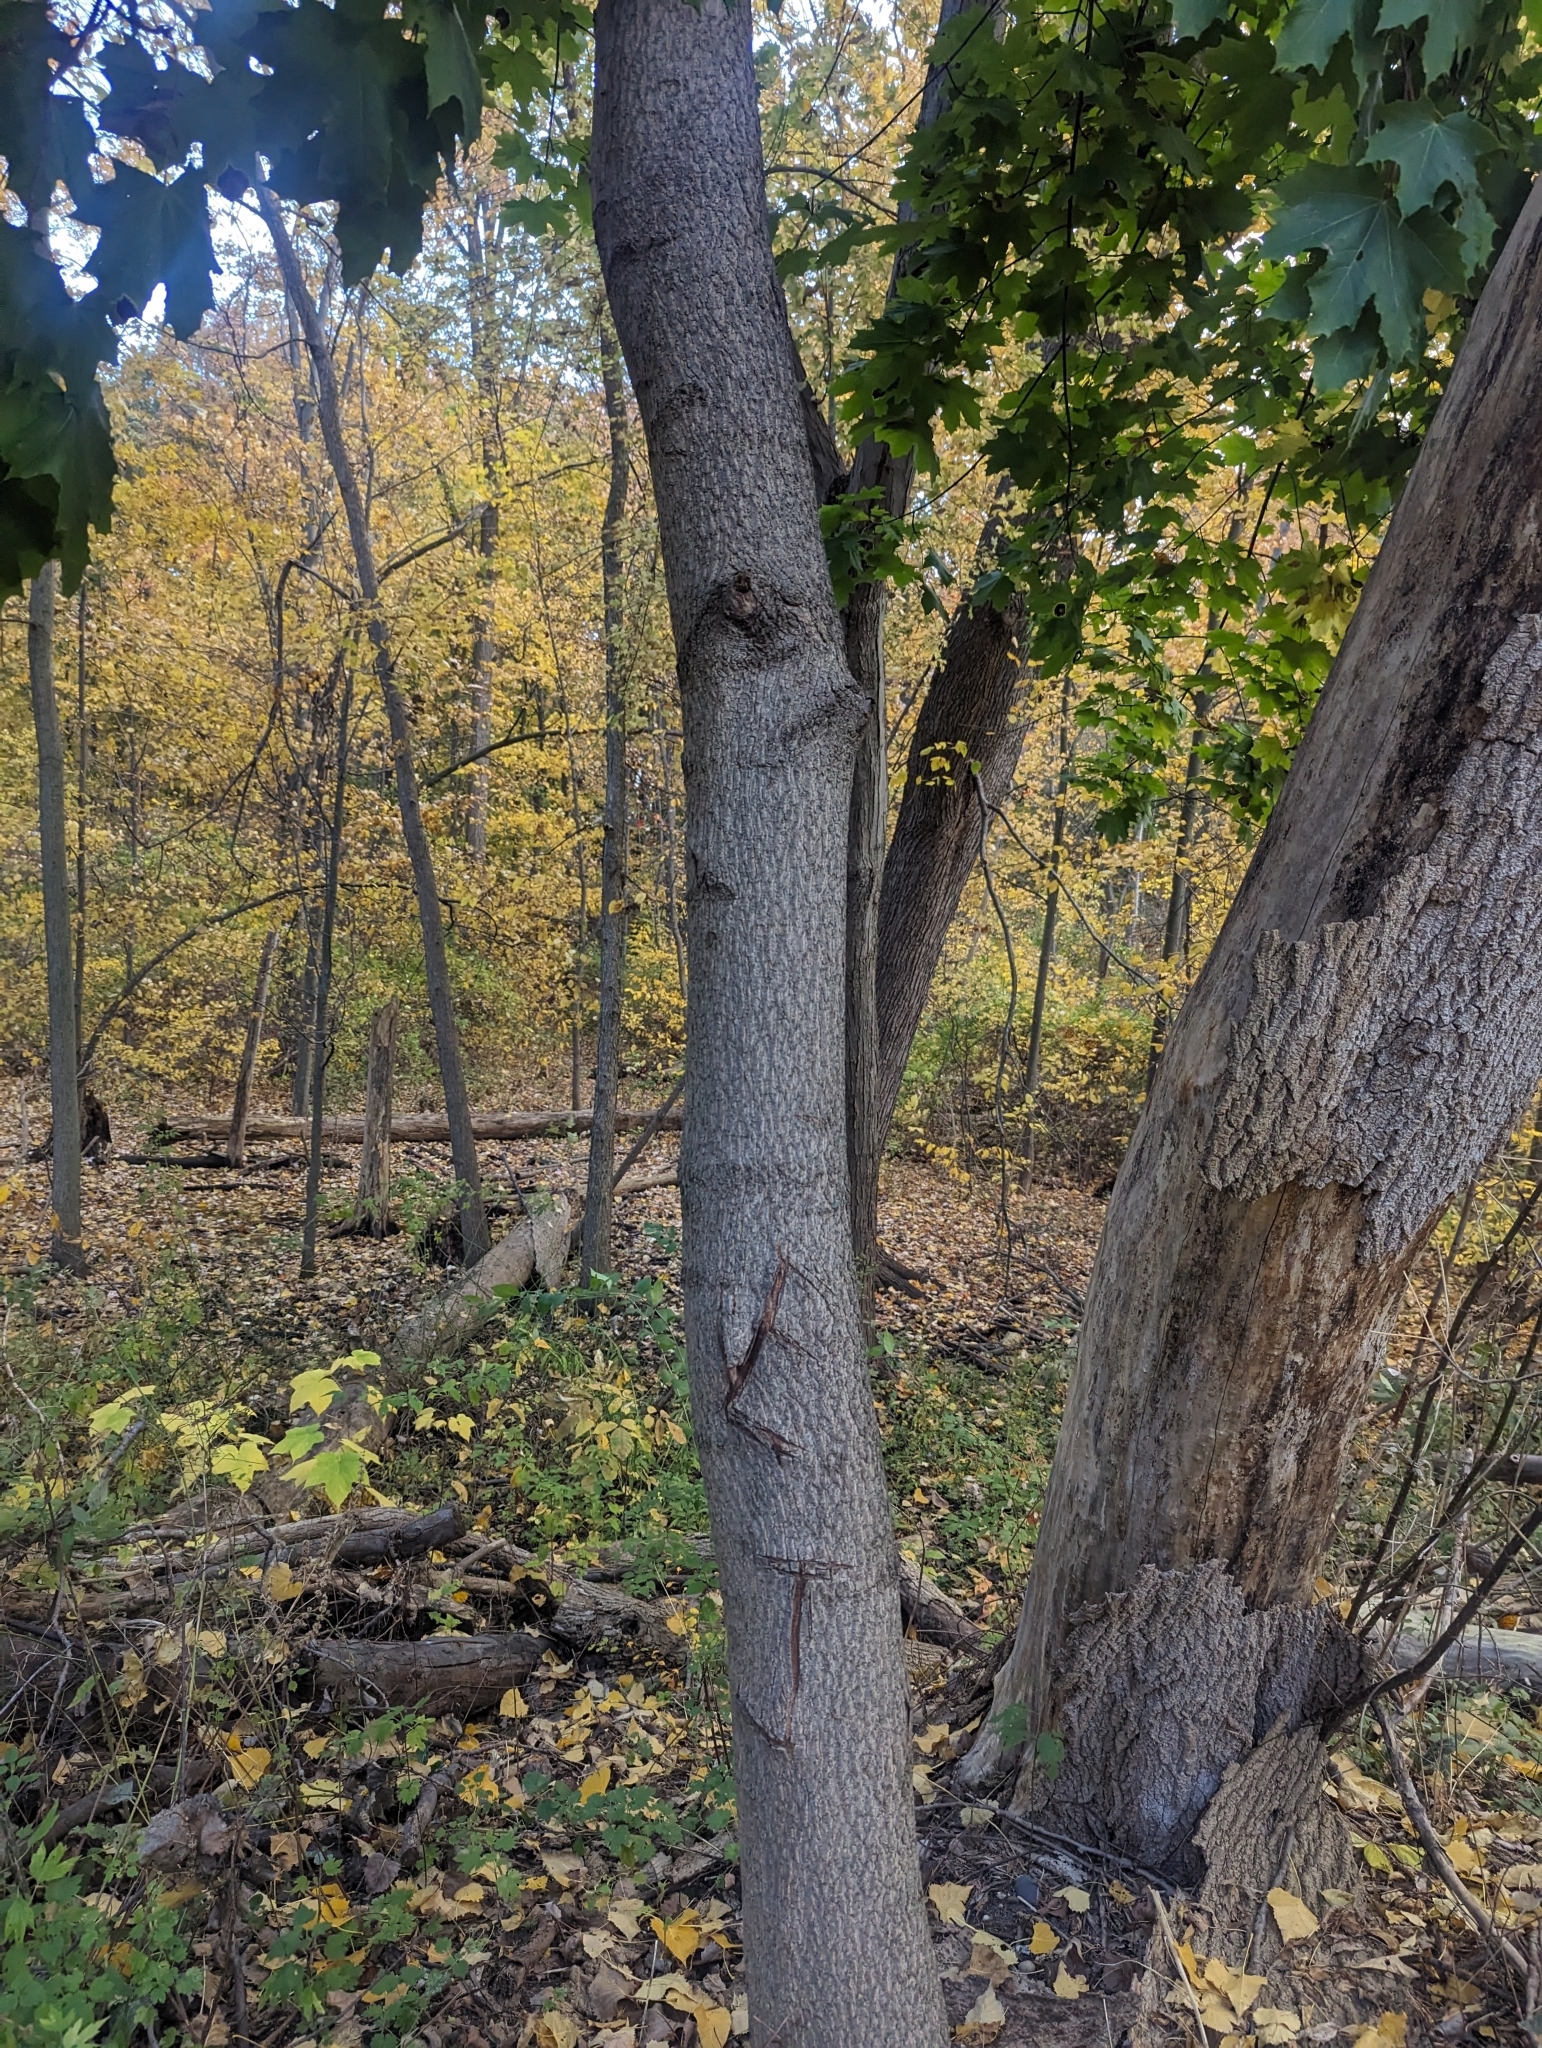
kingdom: Plantae
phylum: Tracheophyta
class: Magnoliopsida
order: Sapindales
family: Sapindaceae
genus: Acer
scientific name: Acer platanoides
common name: Norway maple
